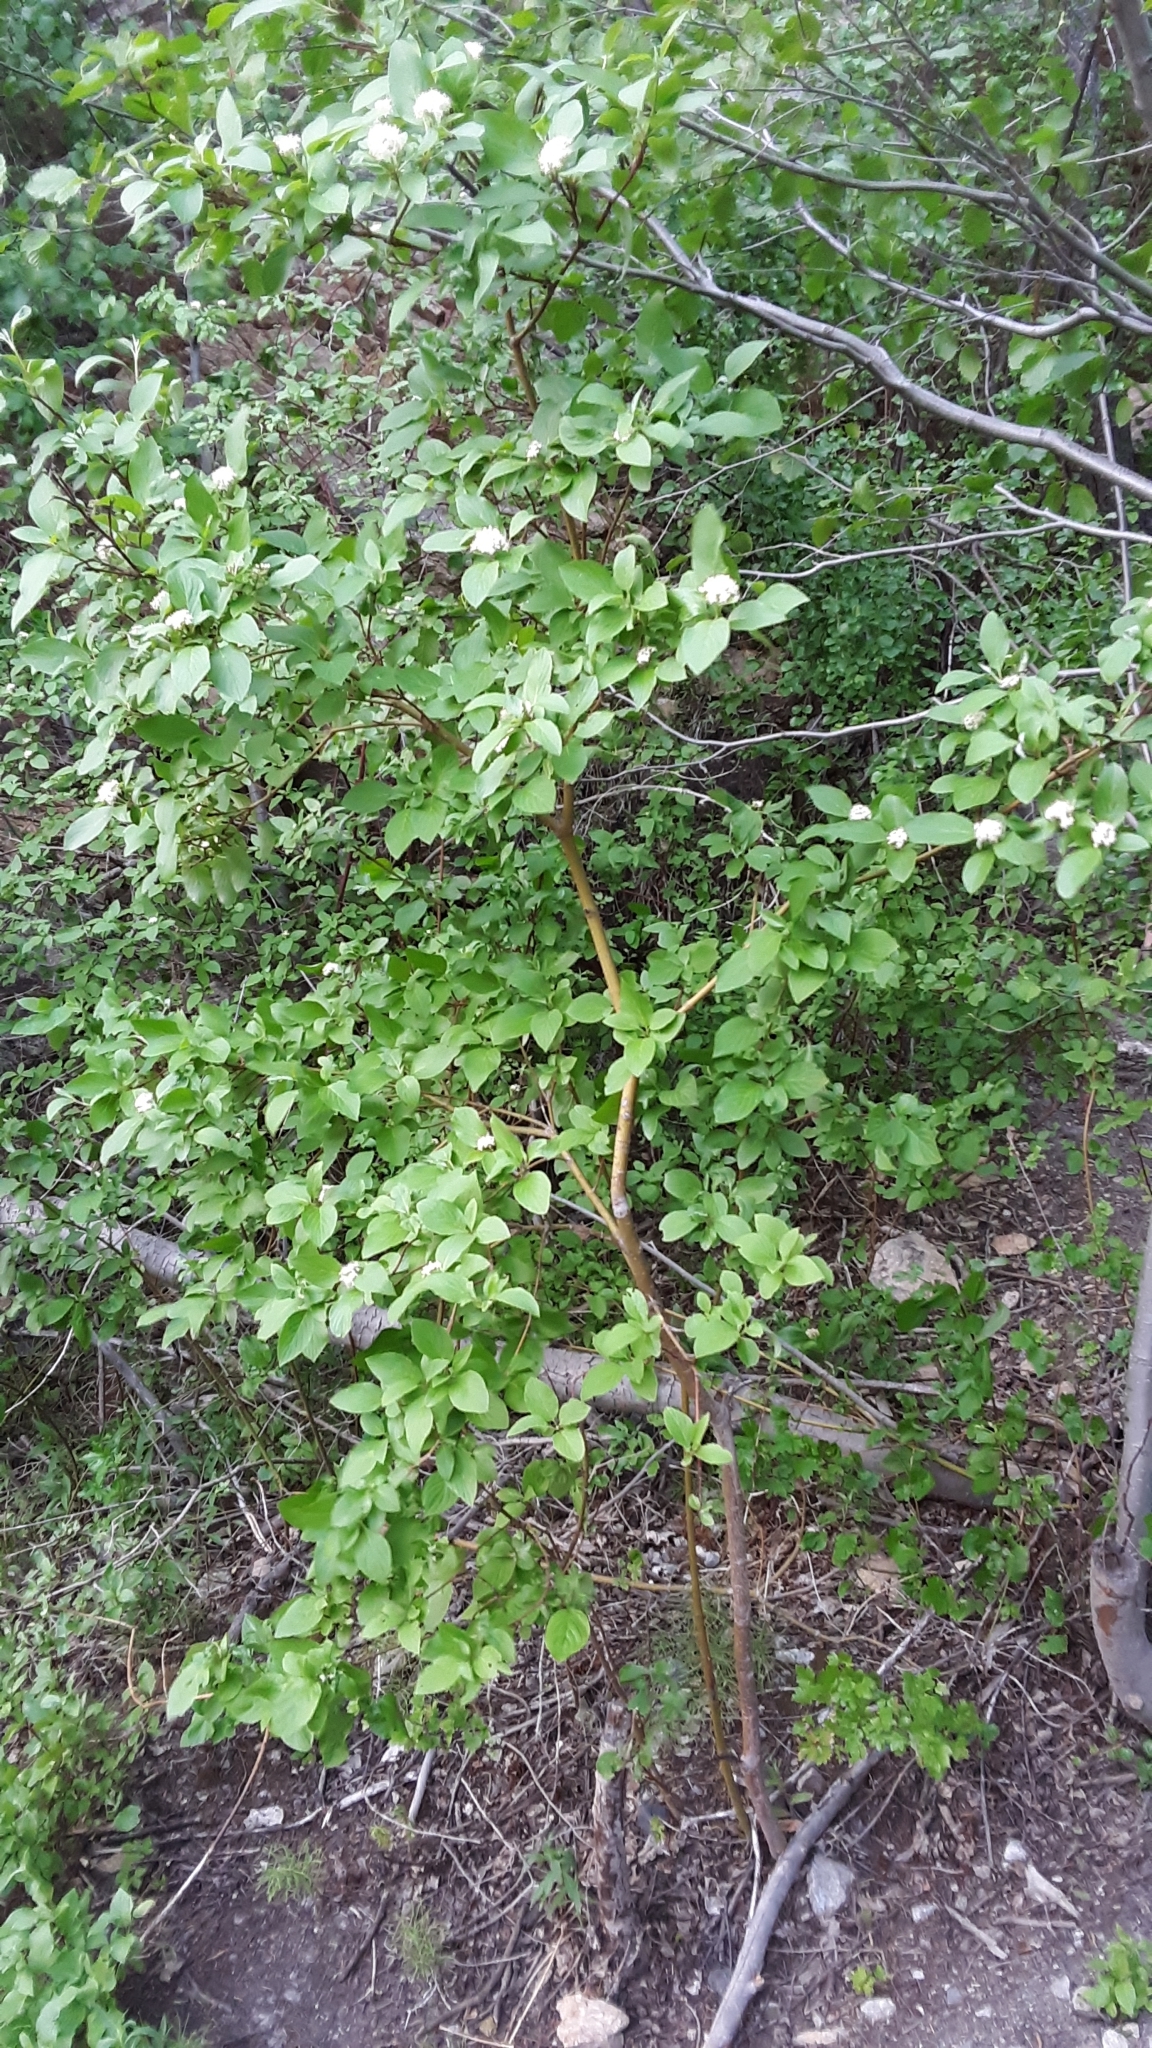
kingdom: Plantae
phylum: Tracheophyta
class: Magnoliopsida
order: Cornales
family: Cornaceae
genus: Cornus
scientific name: Cornus sericea
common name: Red-osier dogwood
